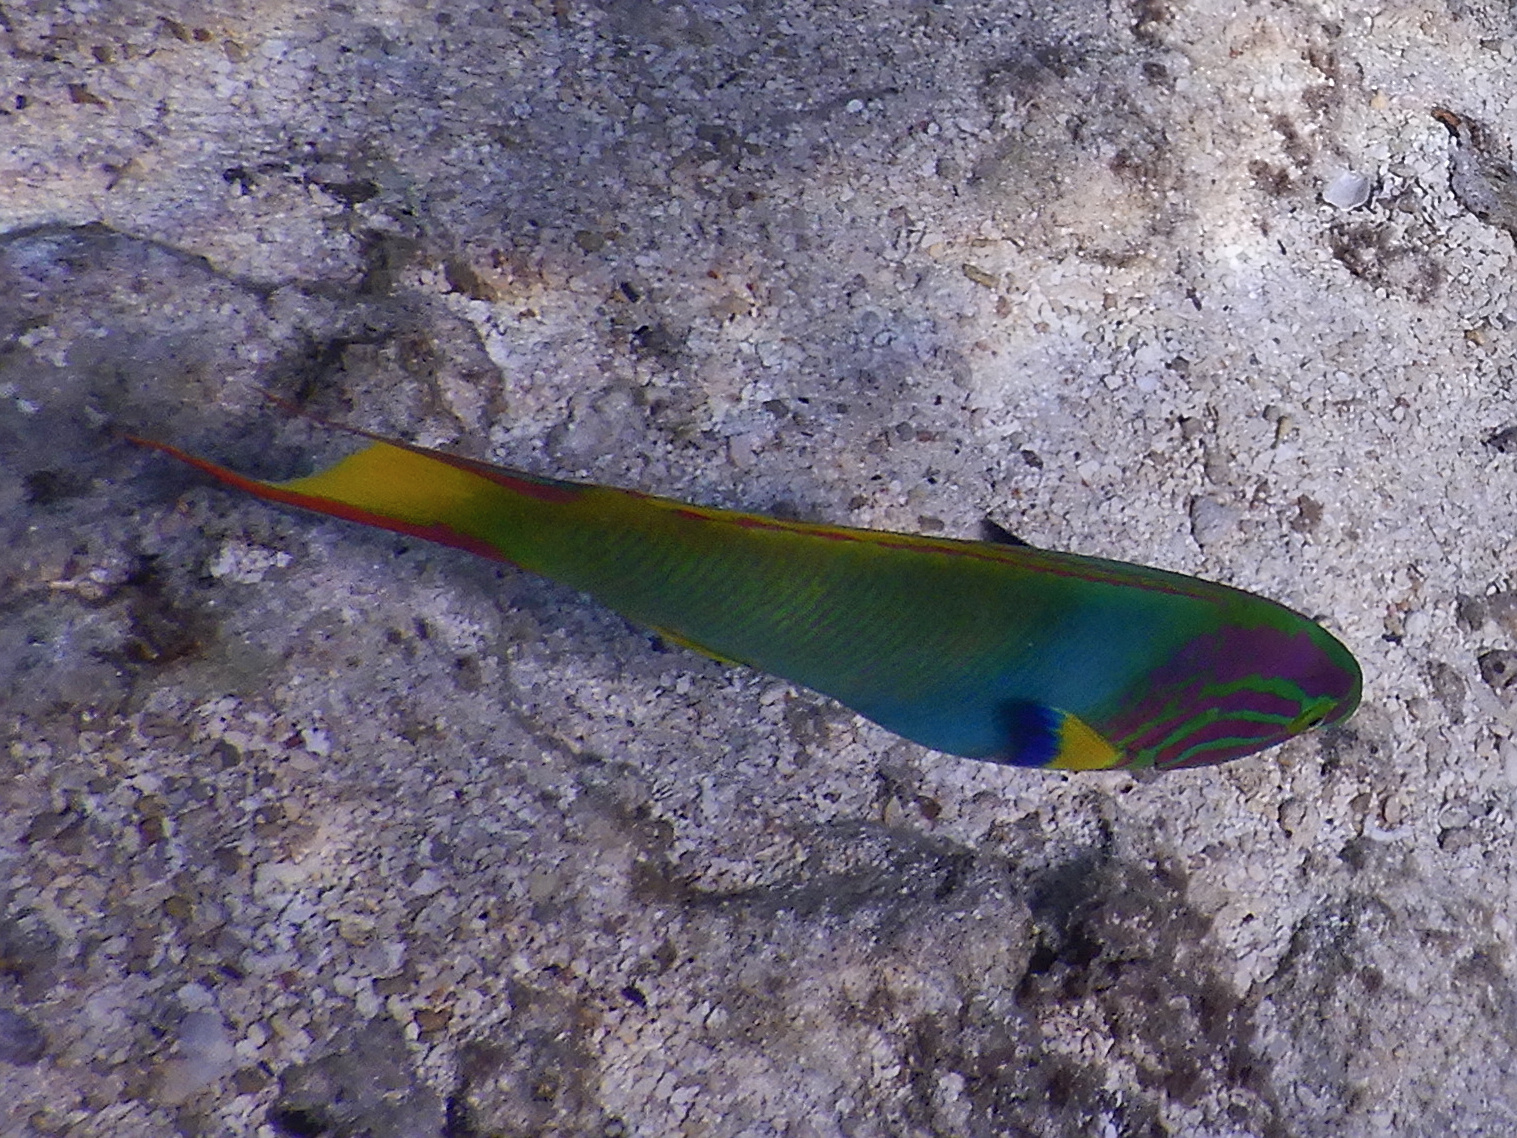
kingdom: Animalia
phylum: Chordata
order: Perciformes
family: Labridae
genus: Thalassoma
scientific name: Thalassoma lutescens
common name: Green moon wrasse
